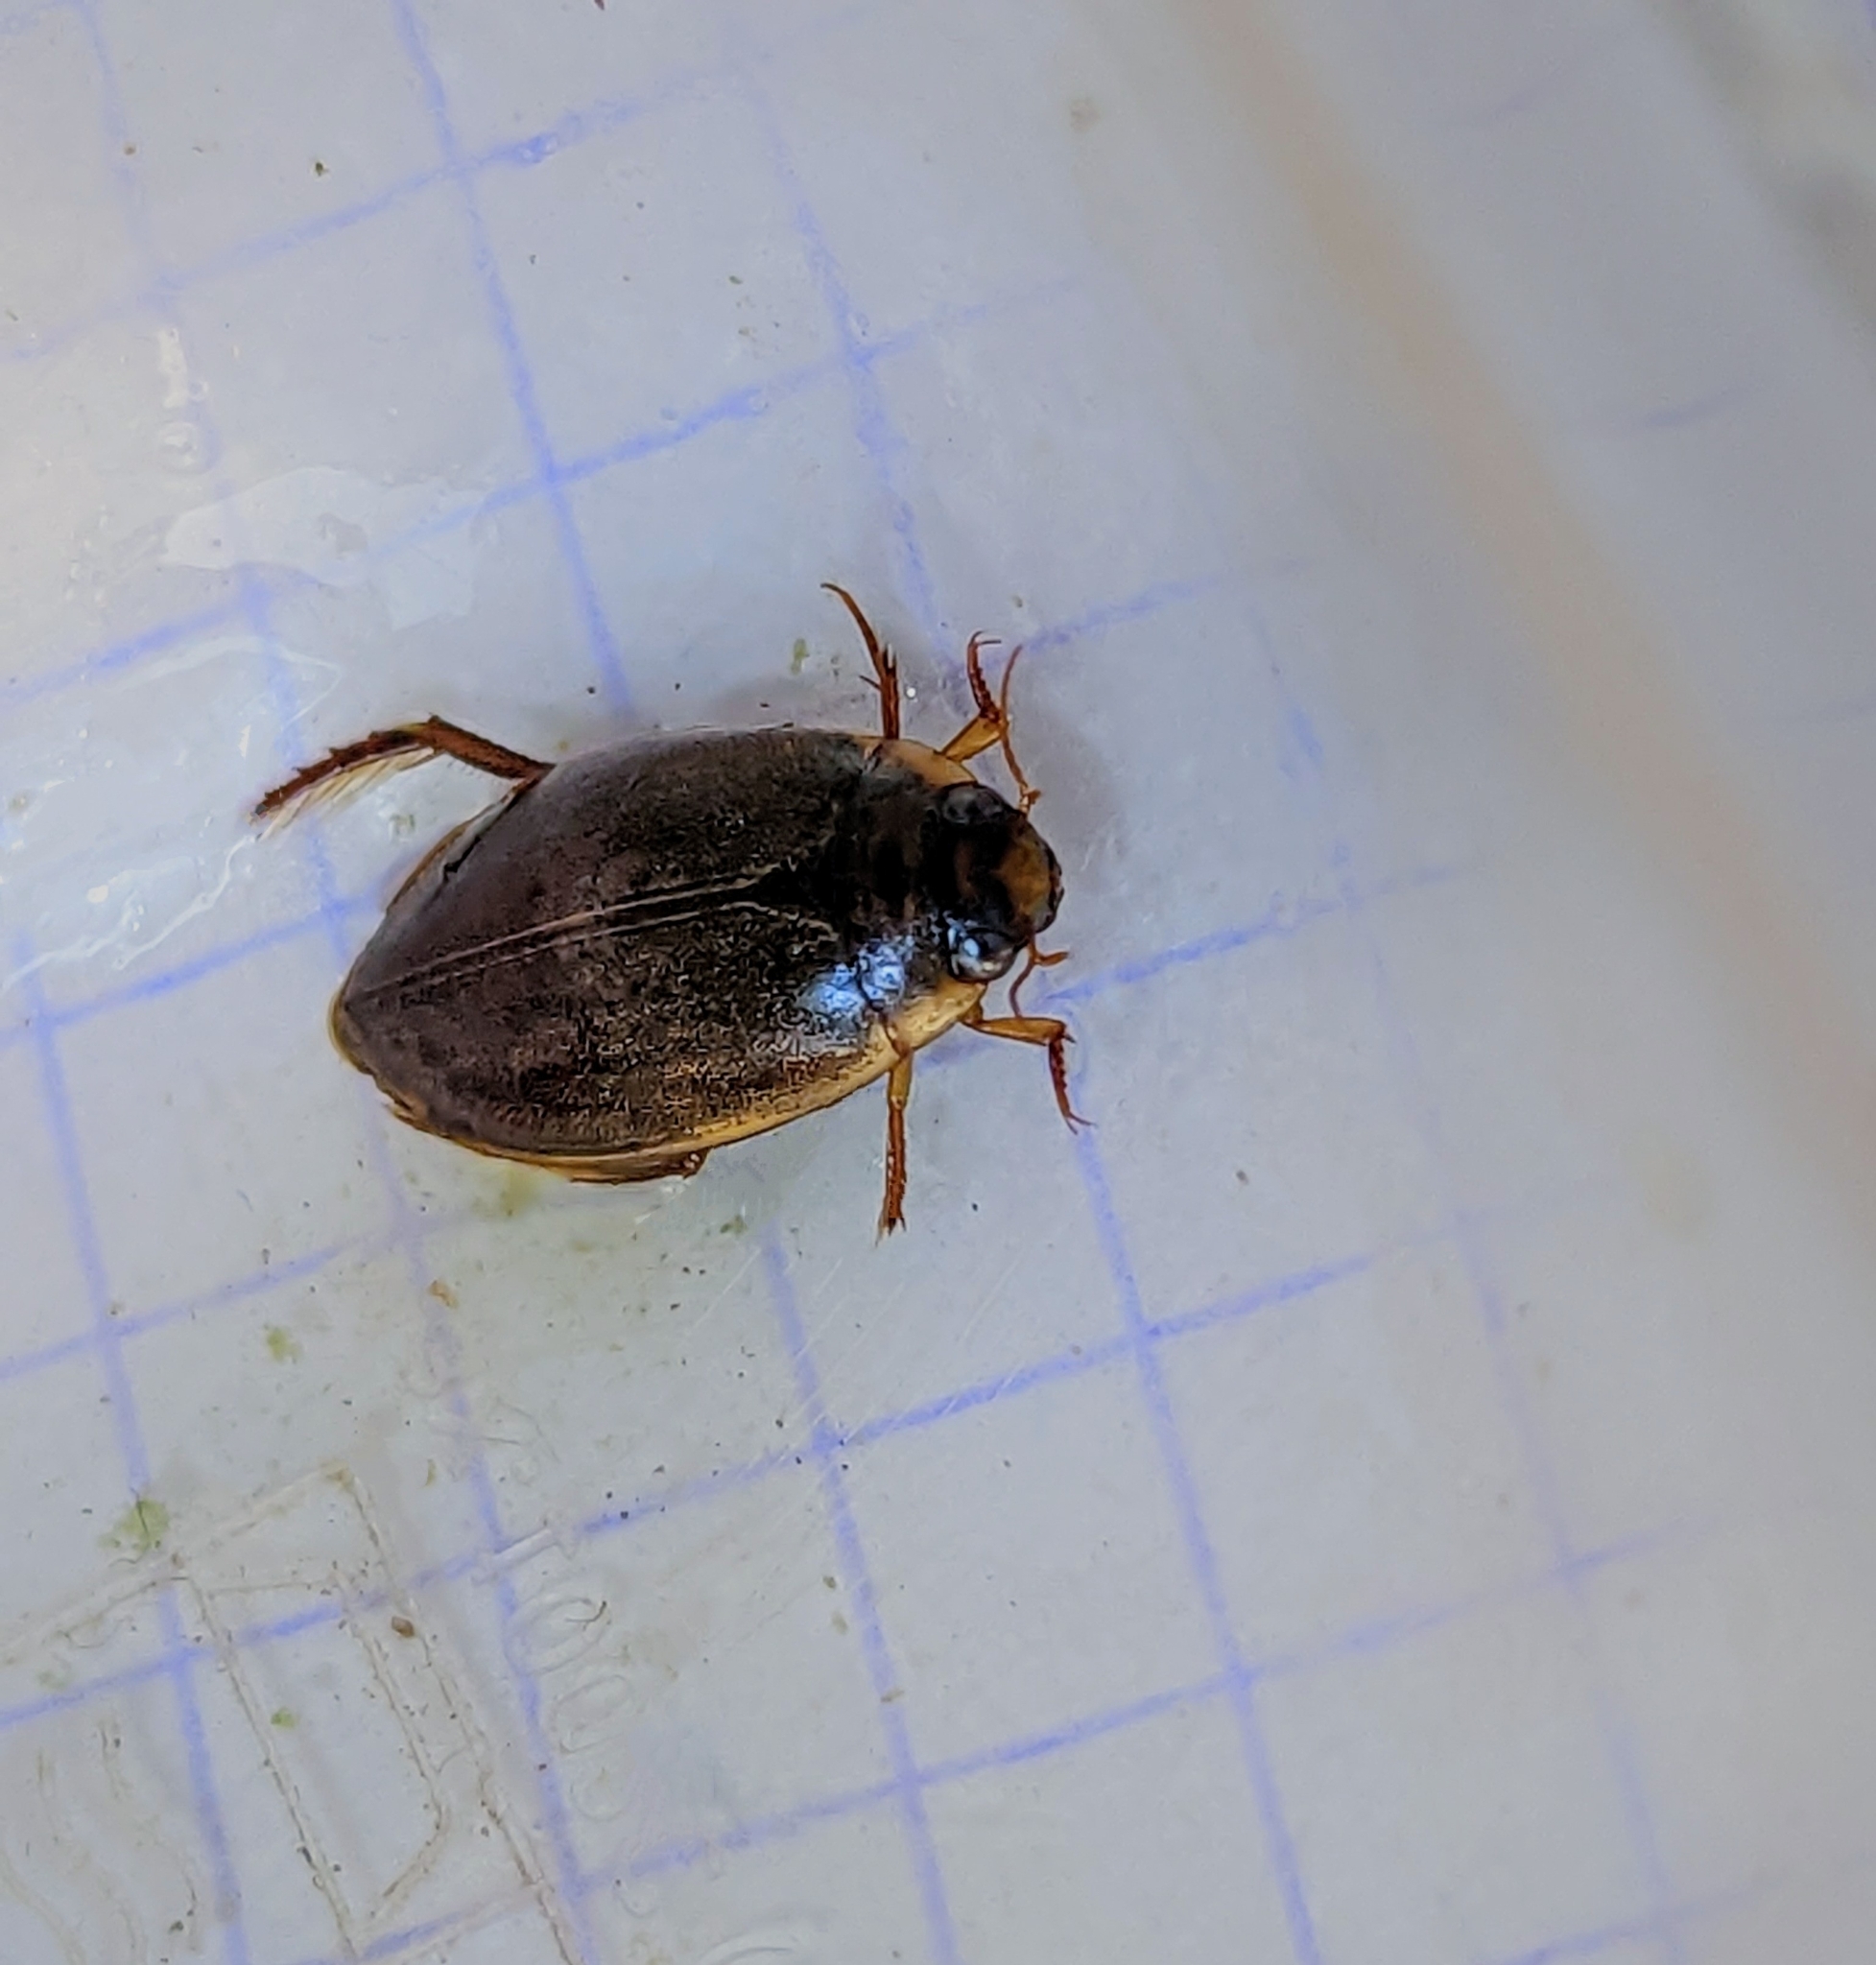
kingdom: Animalia
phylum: Arthropoda
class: Insecta
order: Coleoptera
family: Dytiscidae
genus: Rhantus
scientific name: Rhantus suturalis
